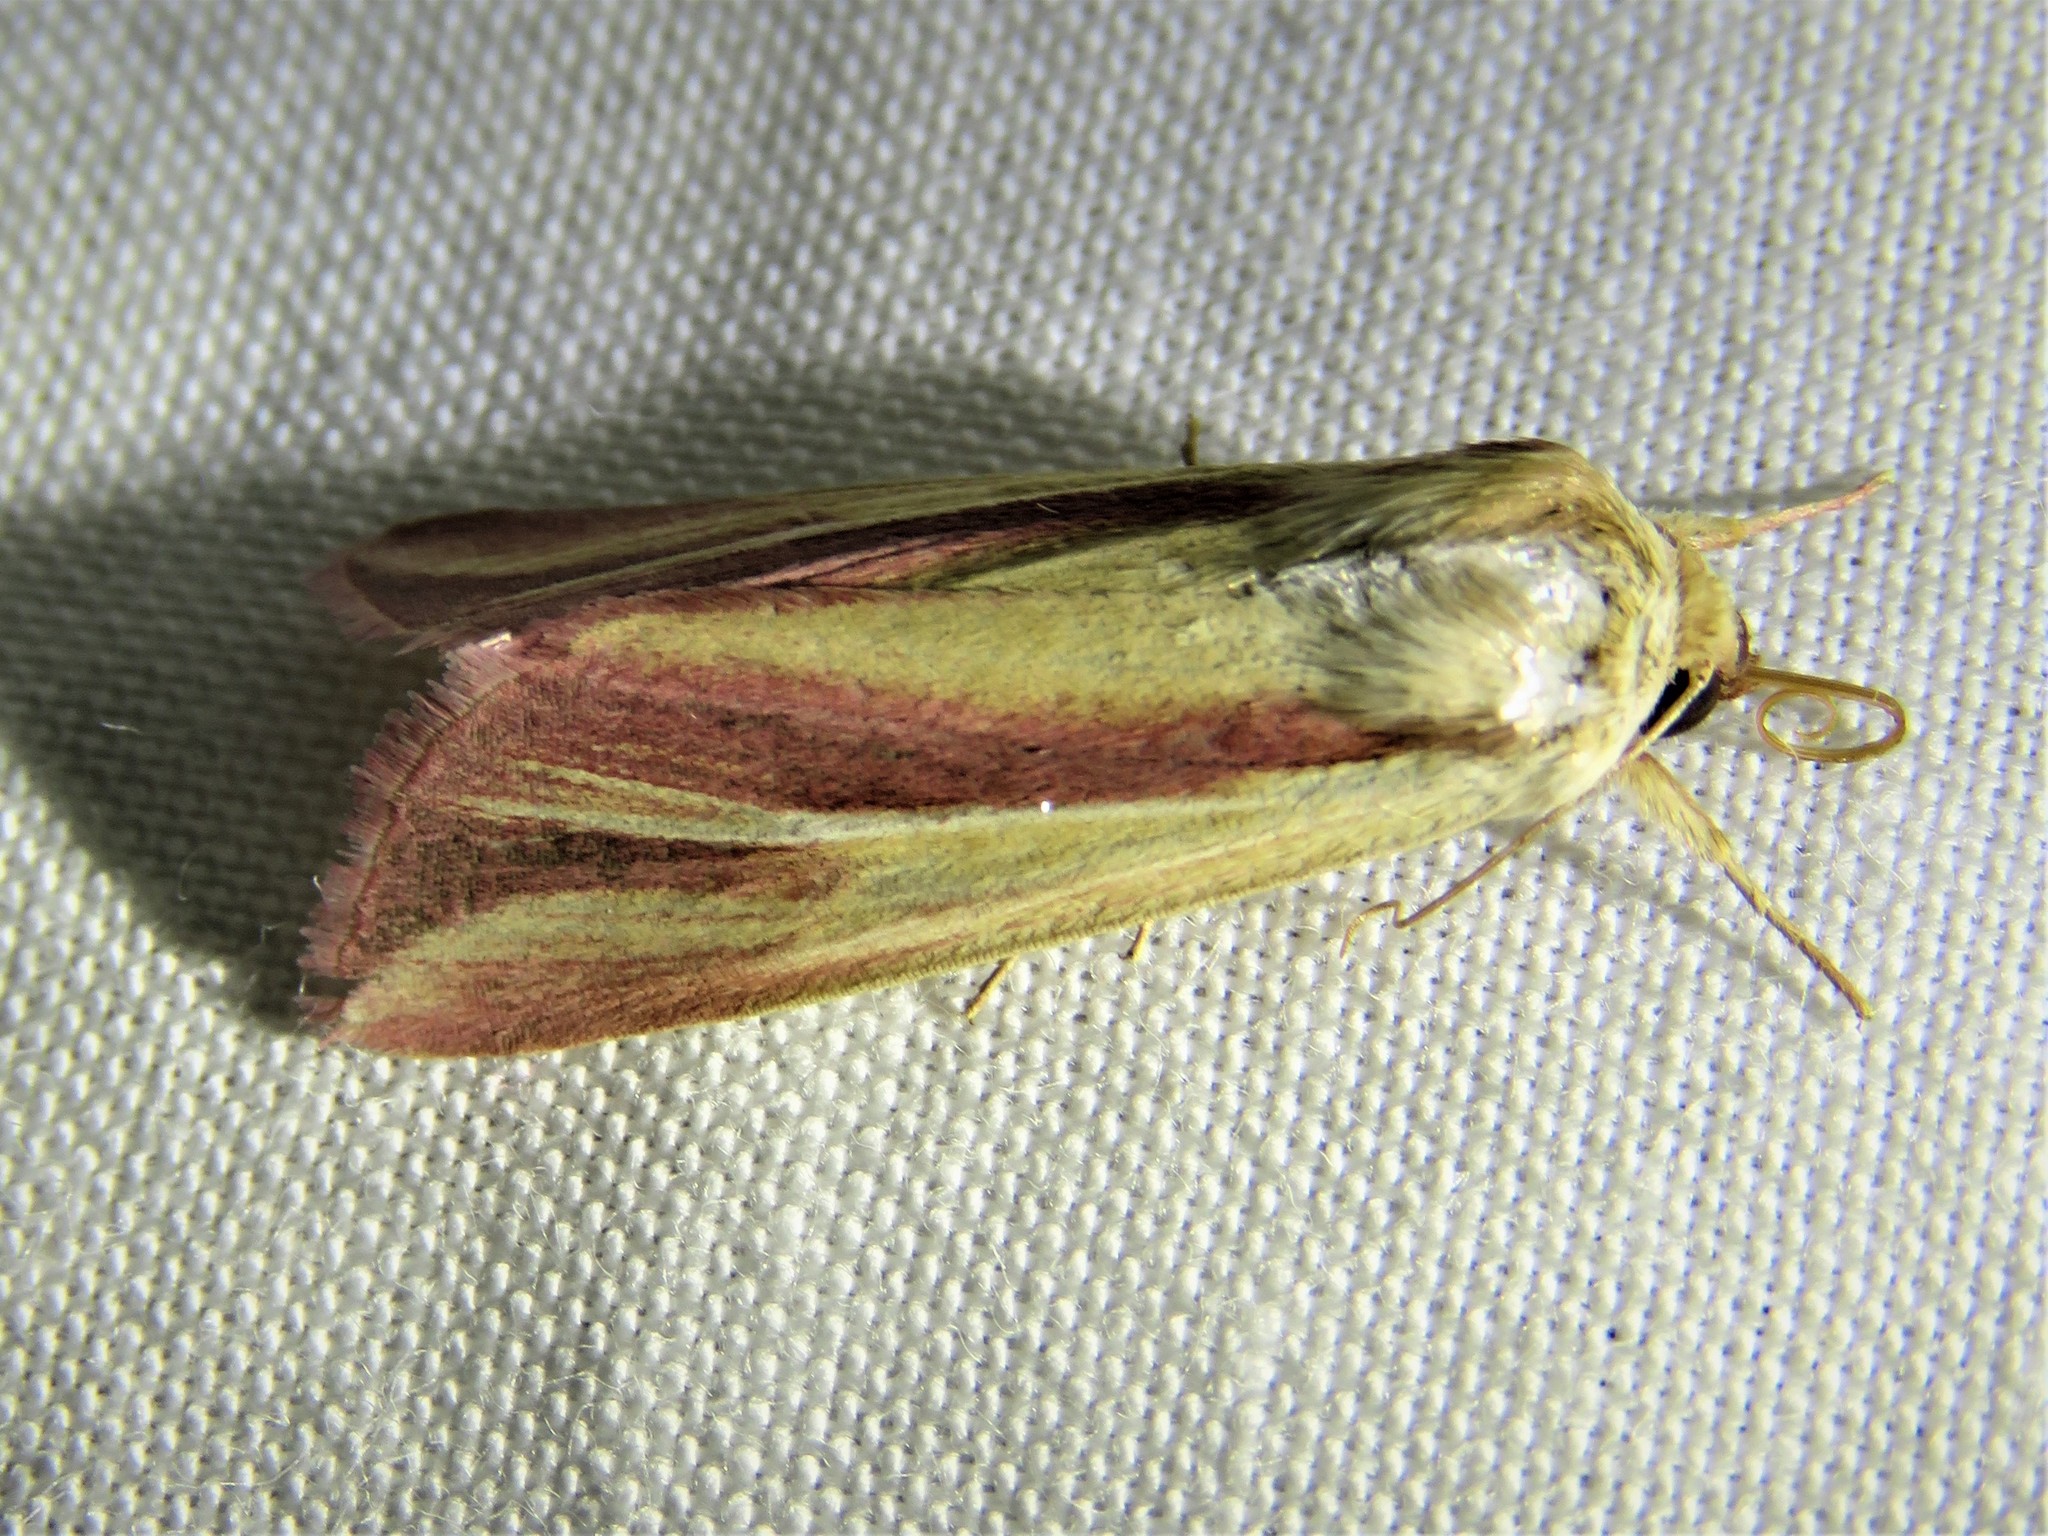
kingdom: Animalia
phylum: Arthropoda
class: Insecta
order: Lepidoptera
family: Noctuidae
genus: Dargida
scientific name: Dargida rubripennis
